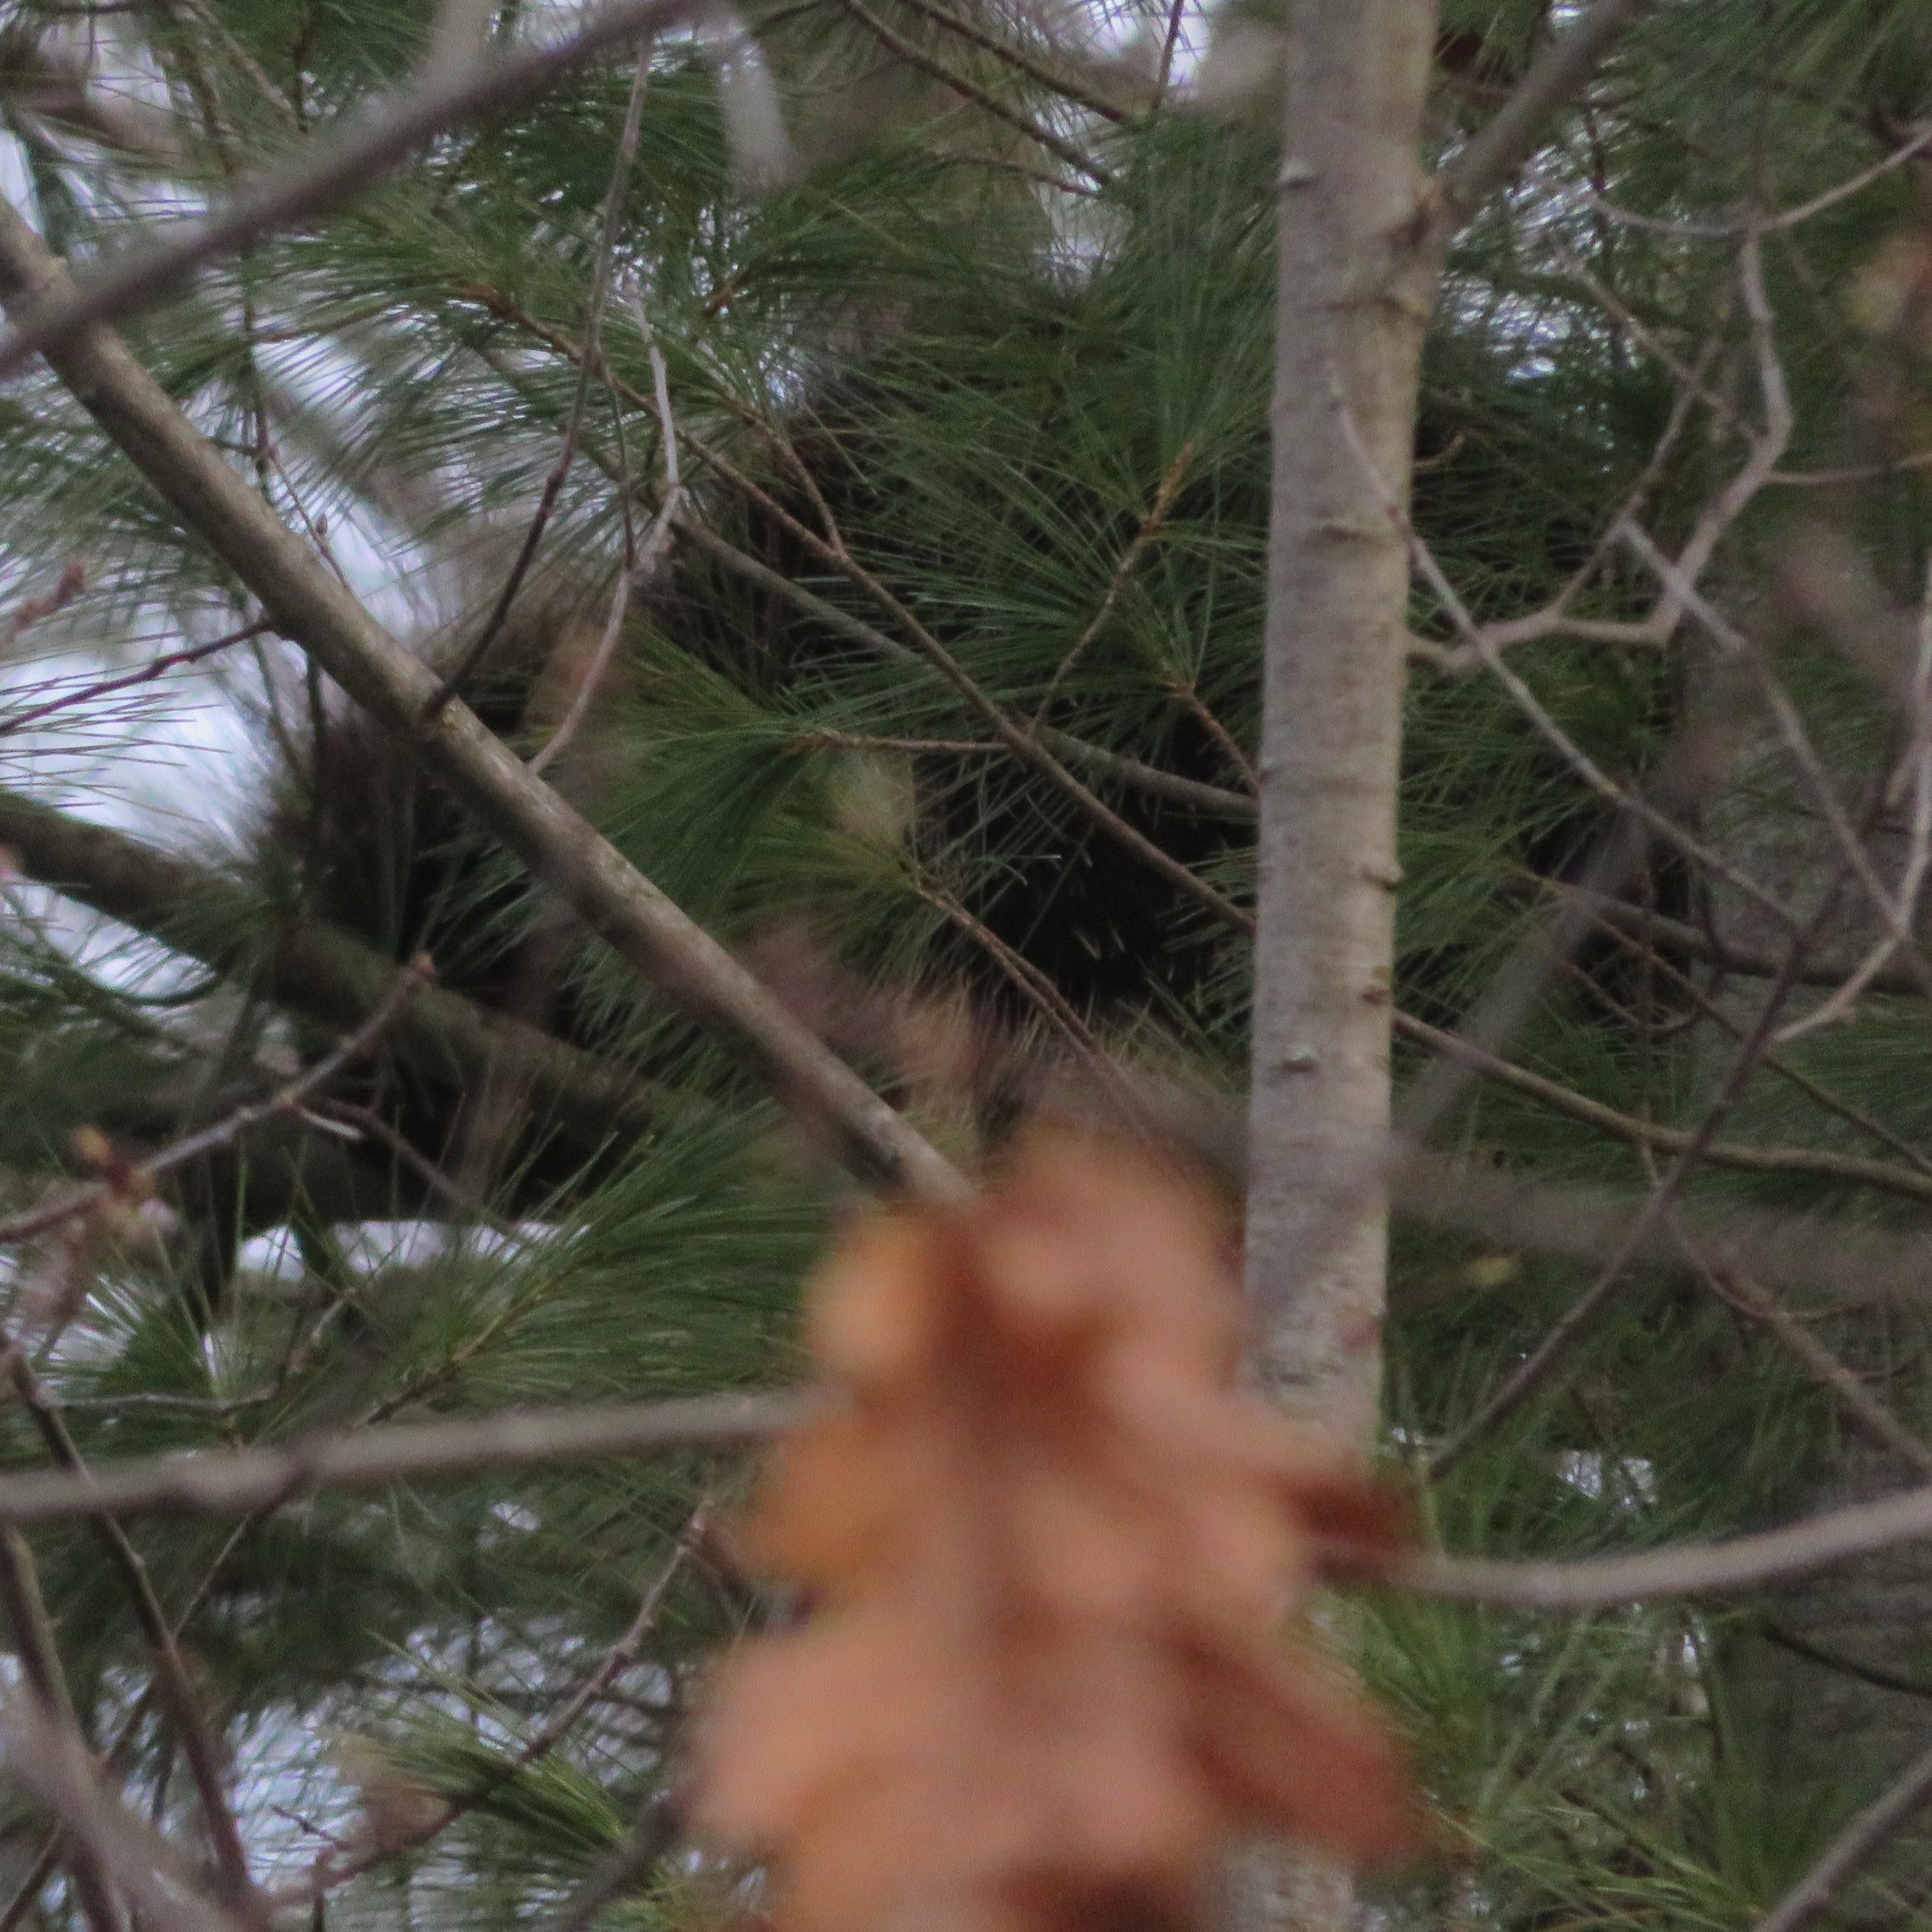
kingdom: Animalia
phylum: Chordata
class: Mammalia
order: Rodentia
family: Erethizontidae
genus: Erethizon
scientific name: Erethizon dorsatus
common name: North american porcupine
